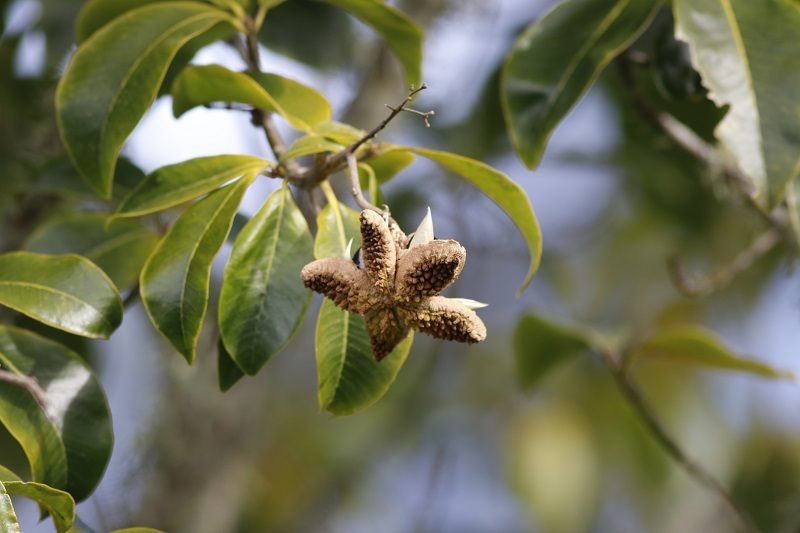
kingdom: Plantae
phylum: Tracheophyta
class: Magnoliopsida
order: Sapindales
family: Rutaceae
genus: Calodendrum
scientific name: Calodendrum capense
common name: Cape chestnut
